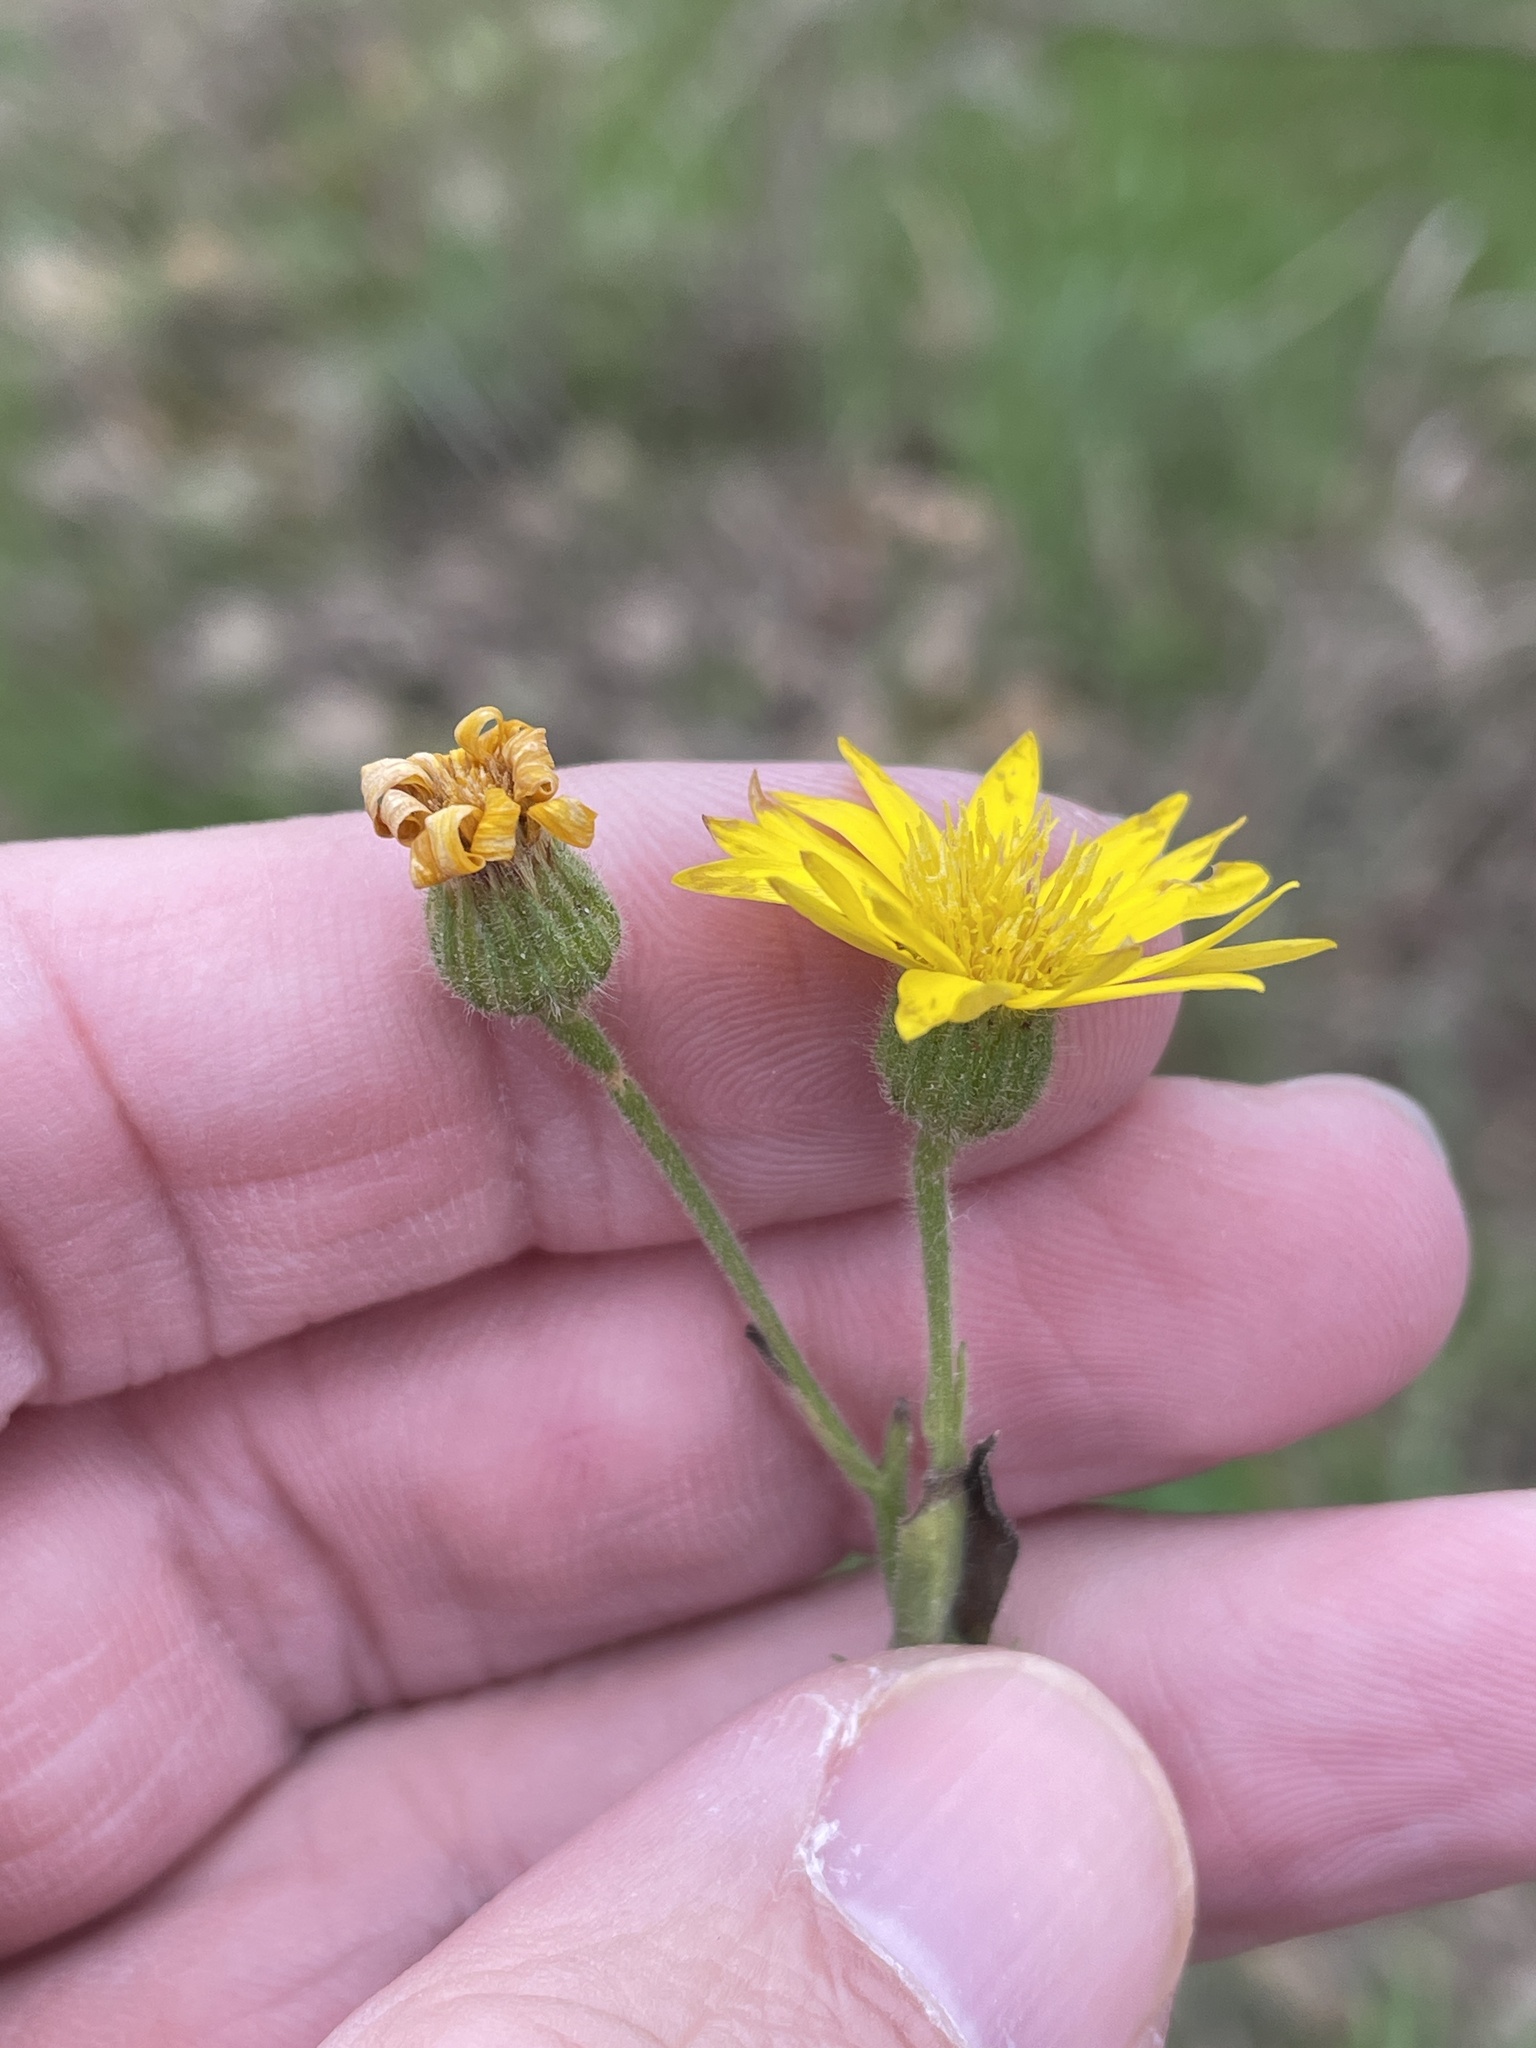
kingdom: Plantae
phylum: Tracheophyta
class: Magnoliopsida
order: Asterales
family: Asteraceae
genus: Bradburia
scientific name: Bradburia pilosa
